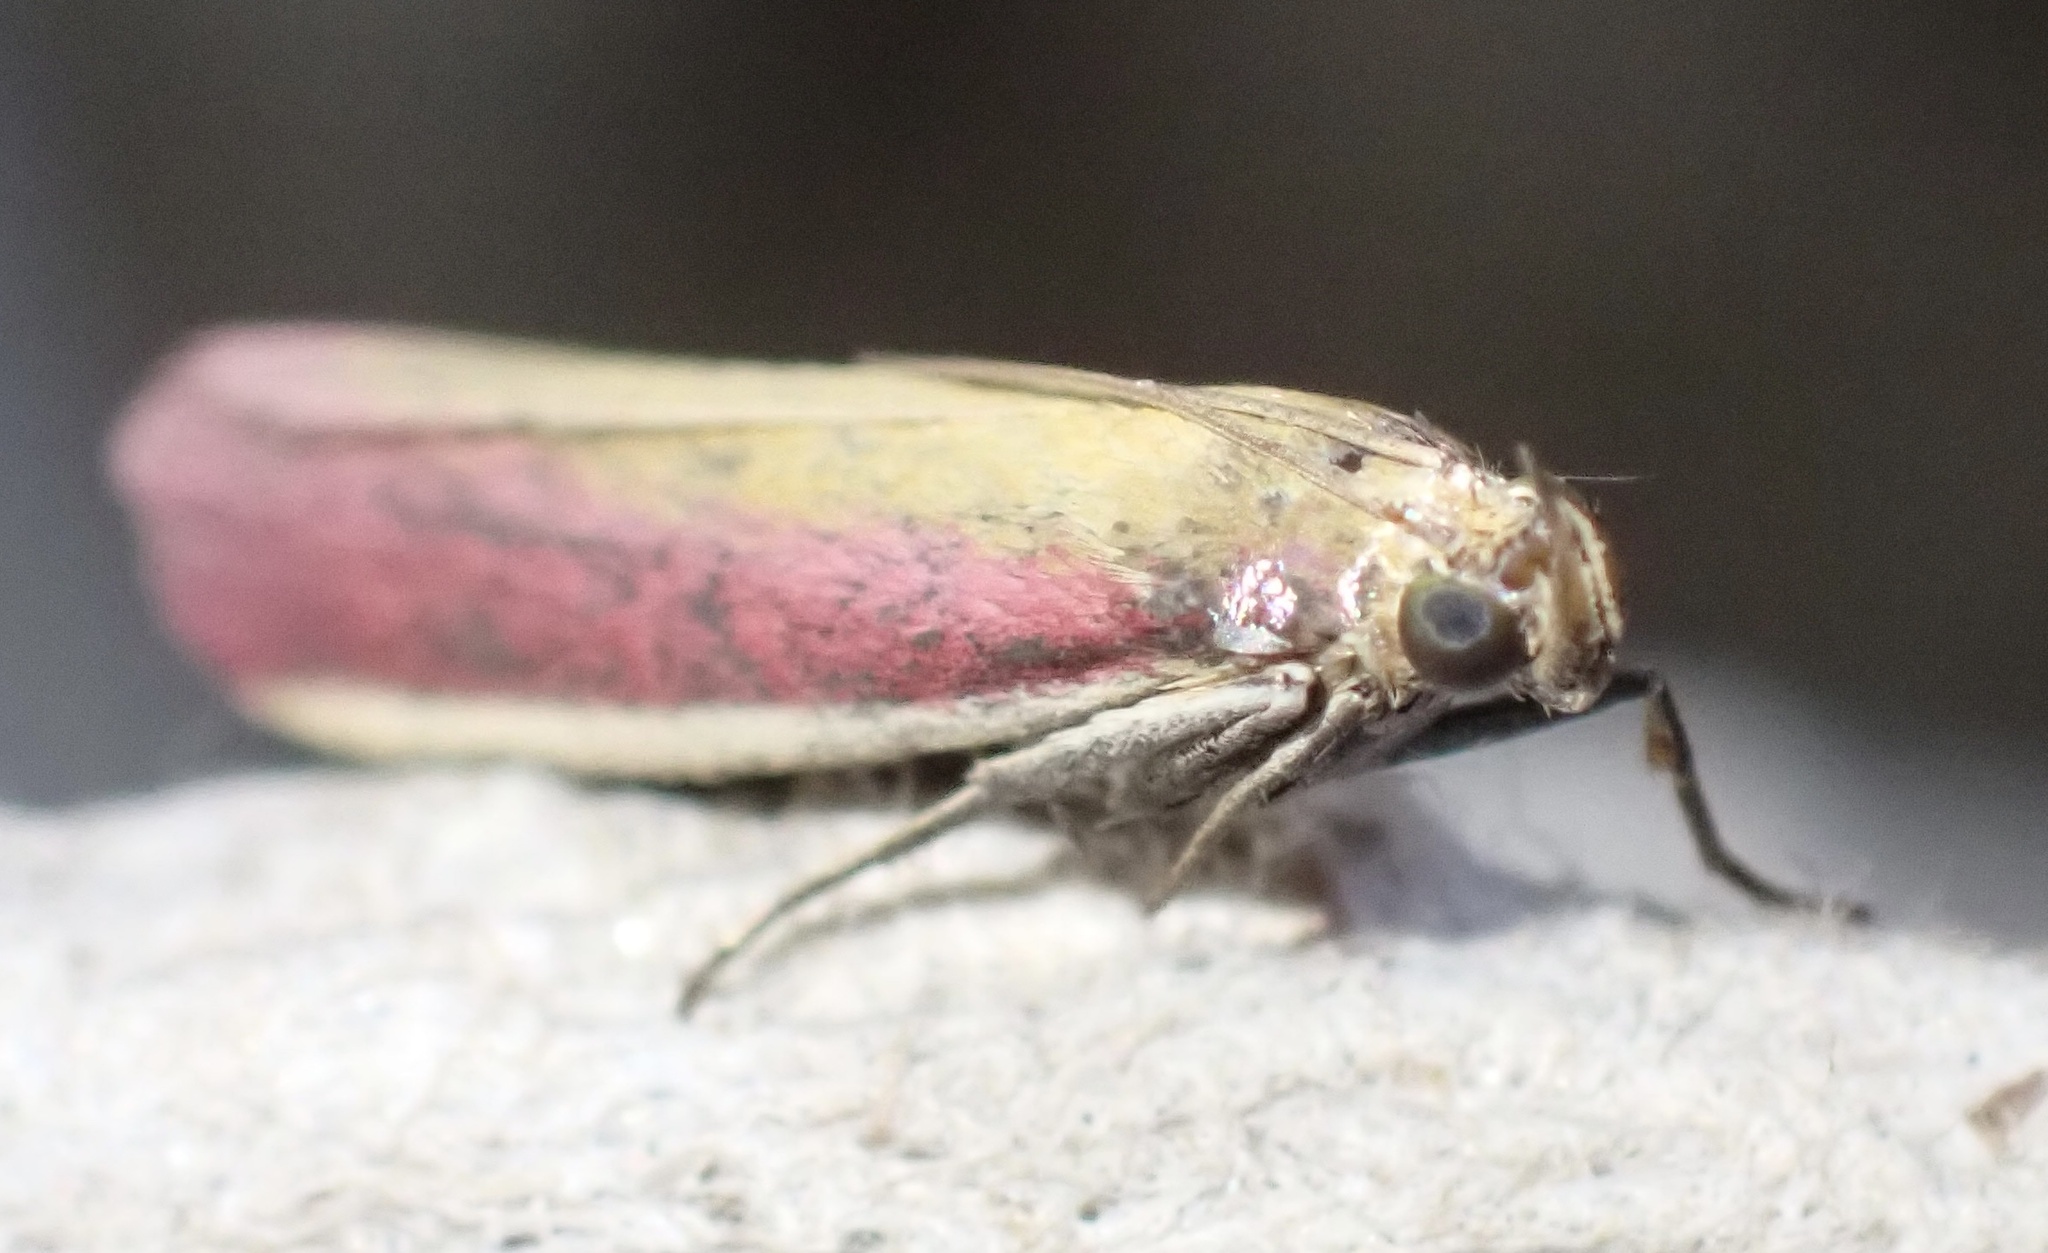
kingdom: Animalia
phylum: Arthropoda
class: Insecta
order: Lepidoptera
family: Pyralidae
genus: Oncocera
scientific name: Oncocera semirubella
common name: Rosy-striped knot-horn
